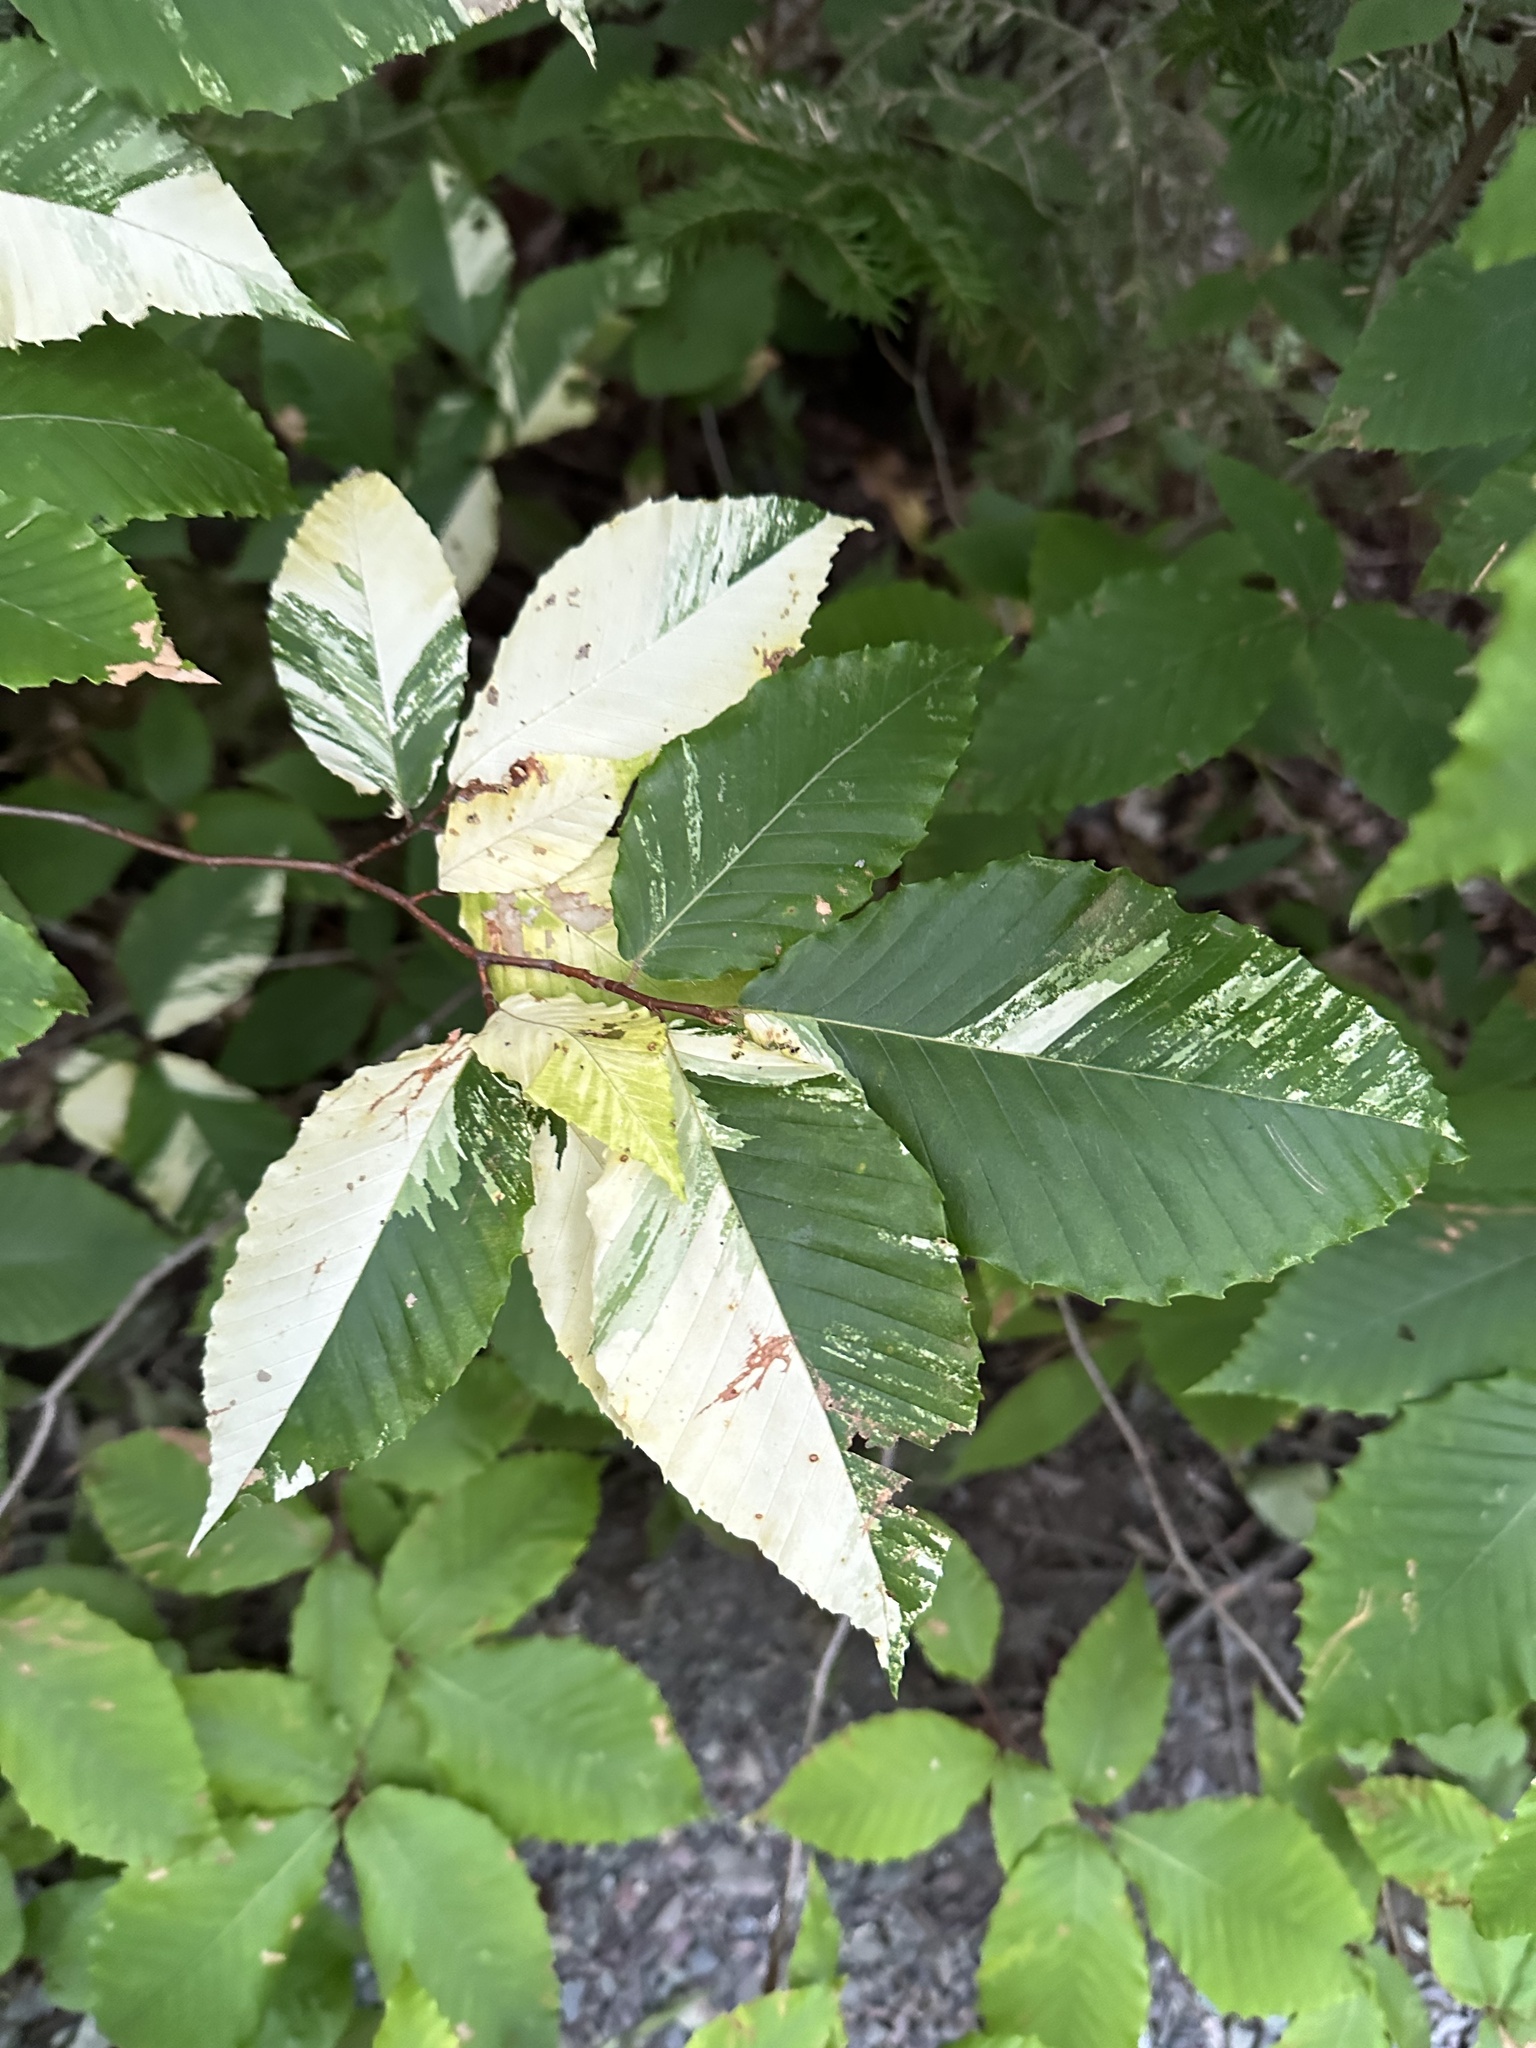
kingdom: Plantae
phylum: Tracheophyta
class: Magnoliopsida
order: Fagales
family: Fagaceae
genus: Fagus
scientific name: Fagus grandifolia
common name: American beech
